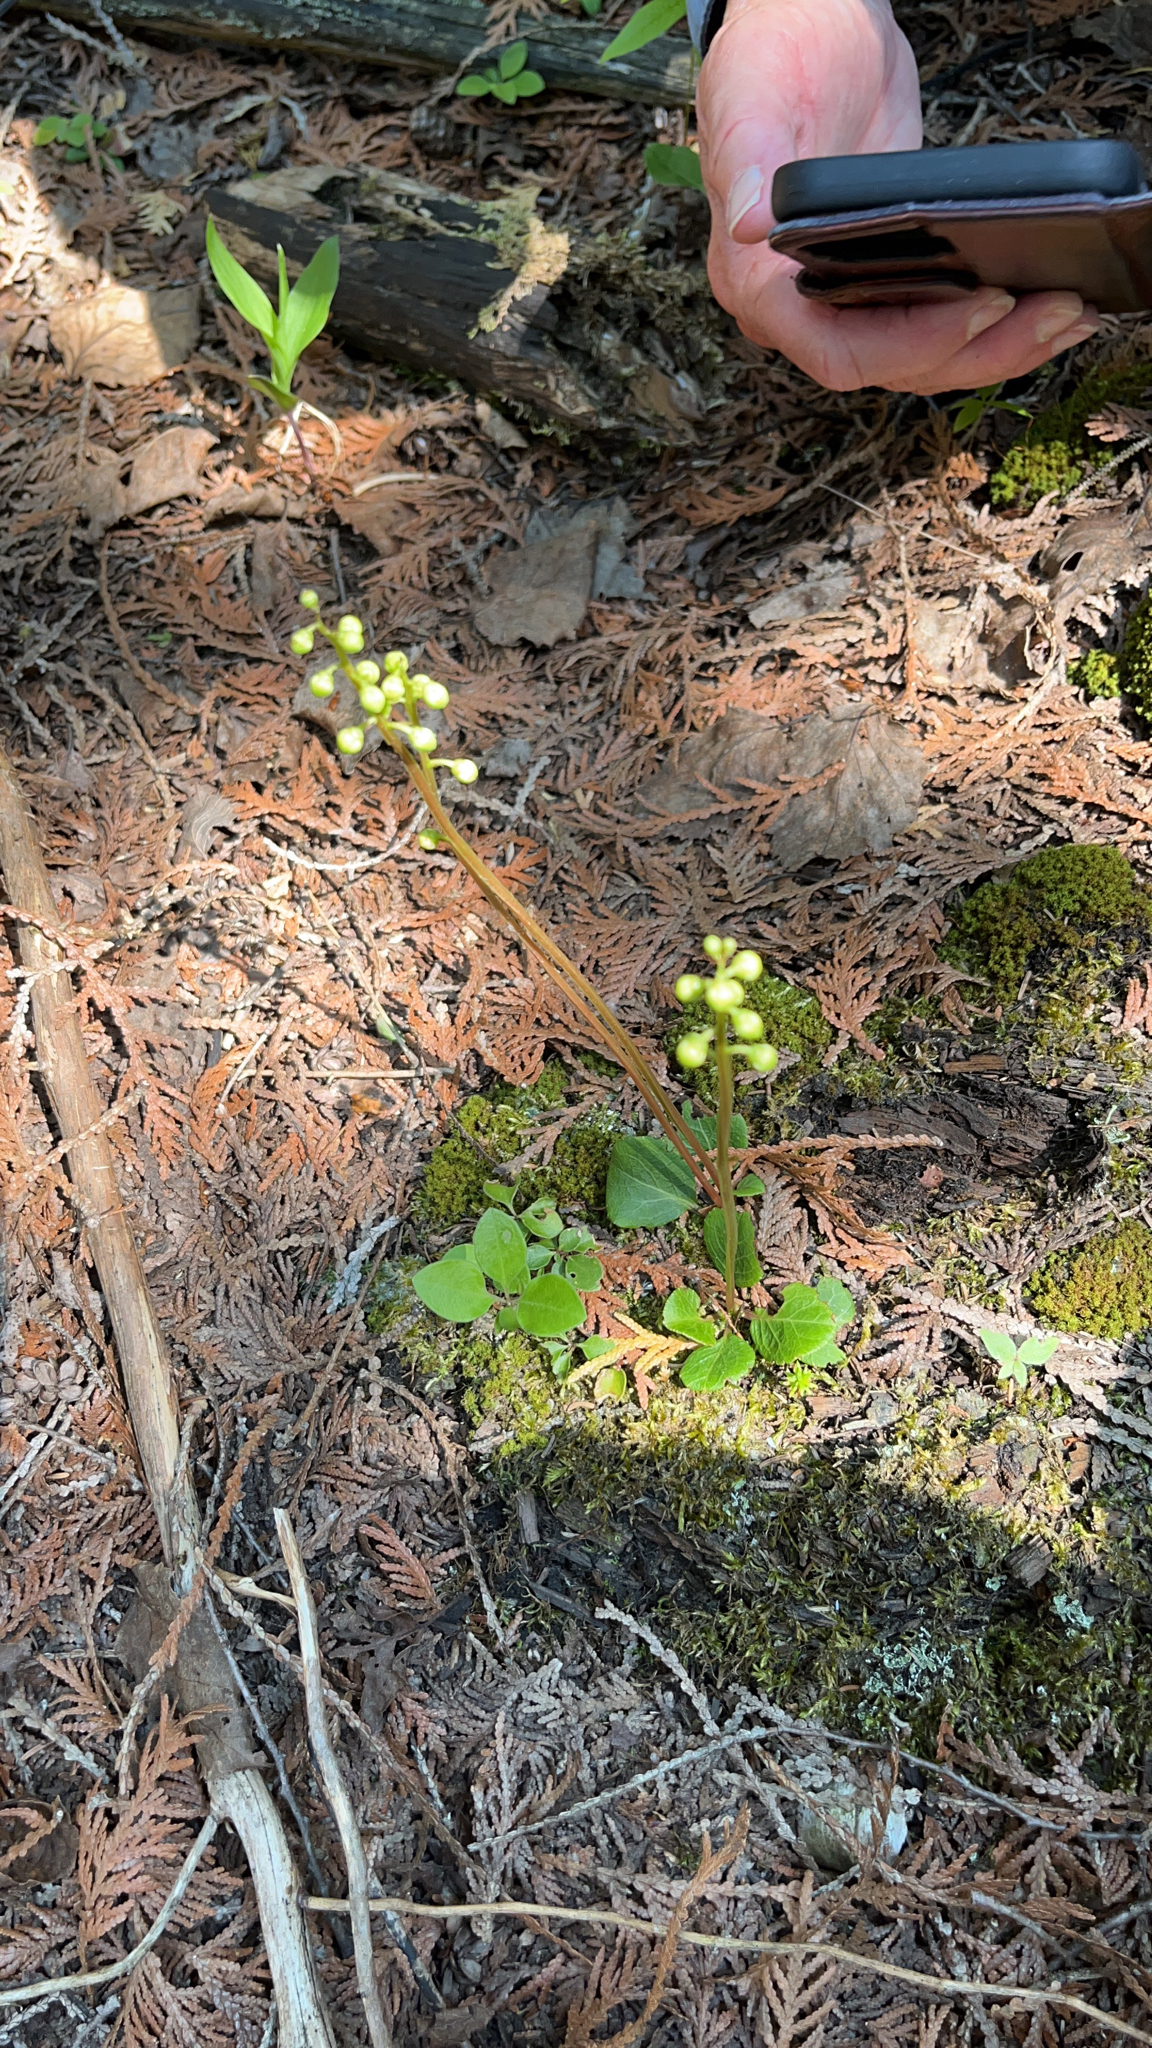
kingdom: Plantae
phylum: Tracheophyta
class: Magnoliopsida
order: Ericales
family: Ericaceae
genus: Pyrola
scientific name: Pyrola chlorantha
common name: Green wintergreen
